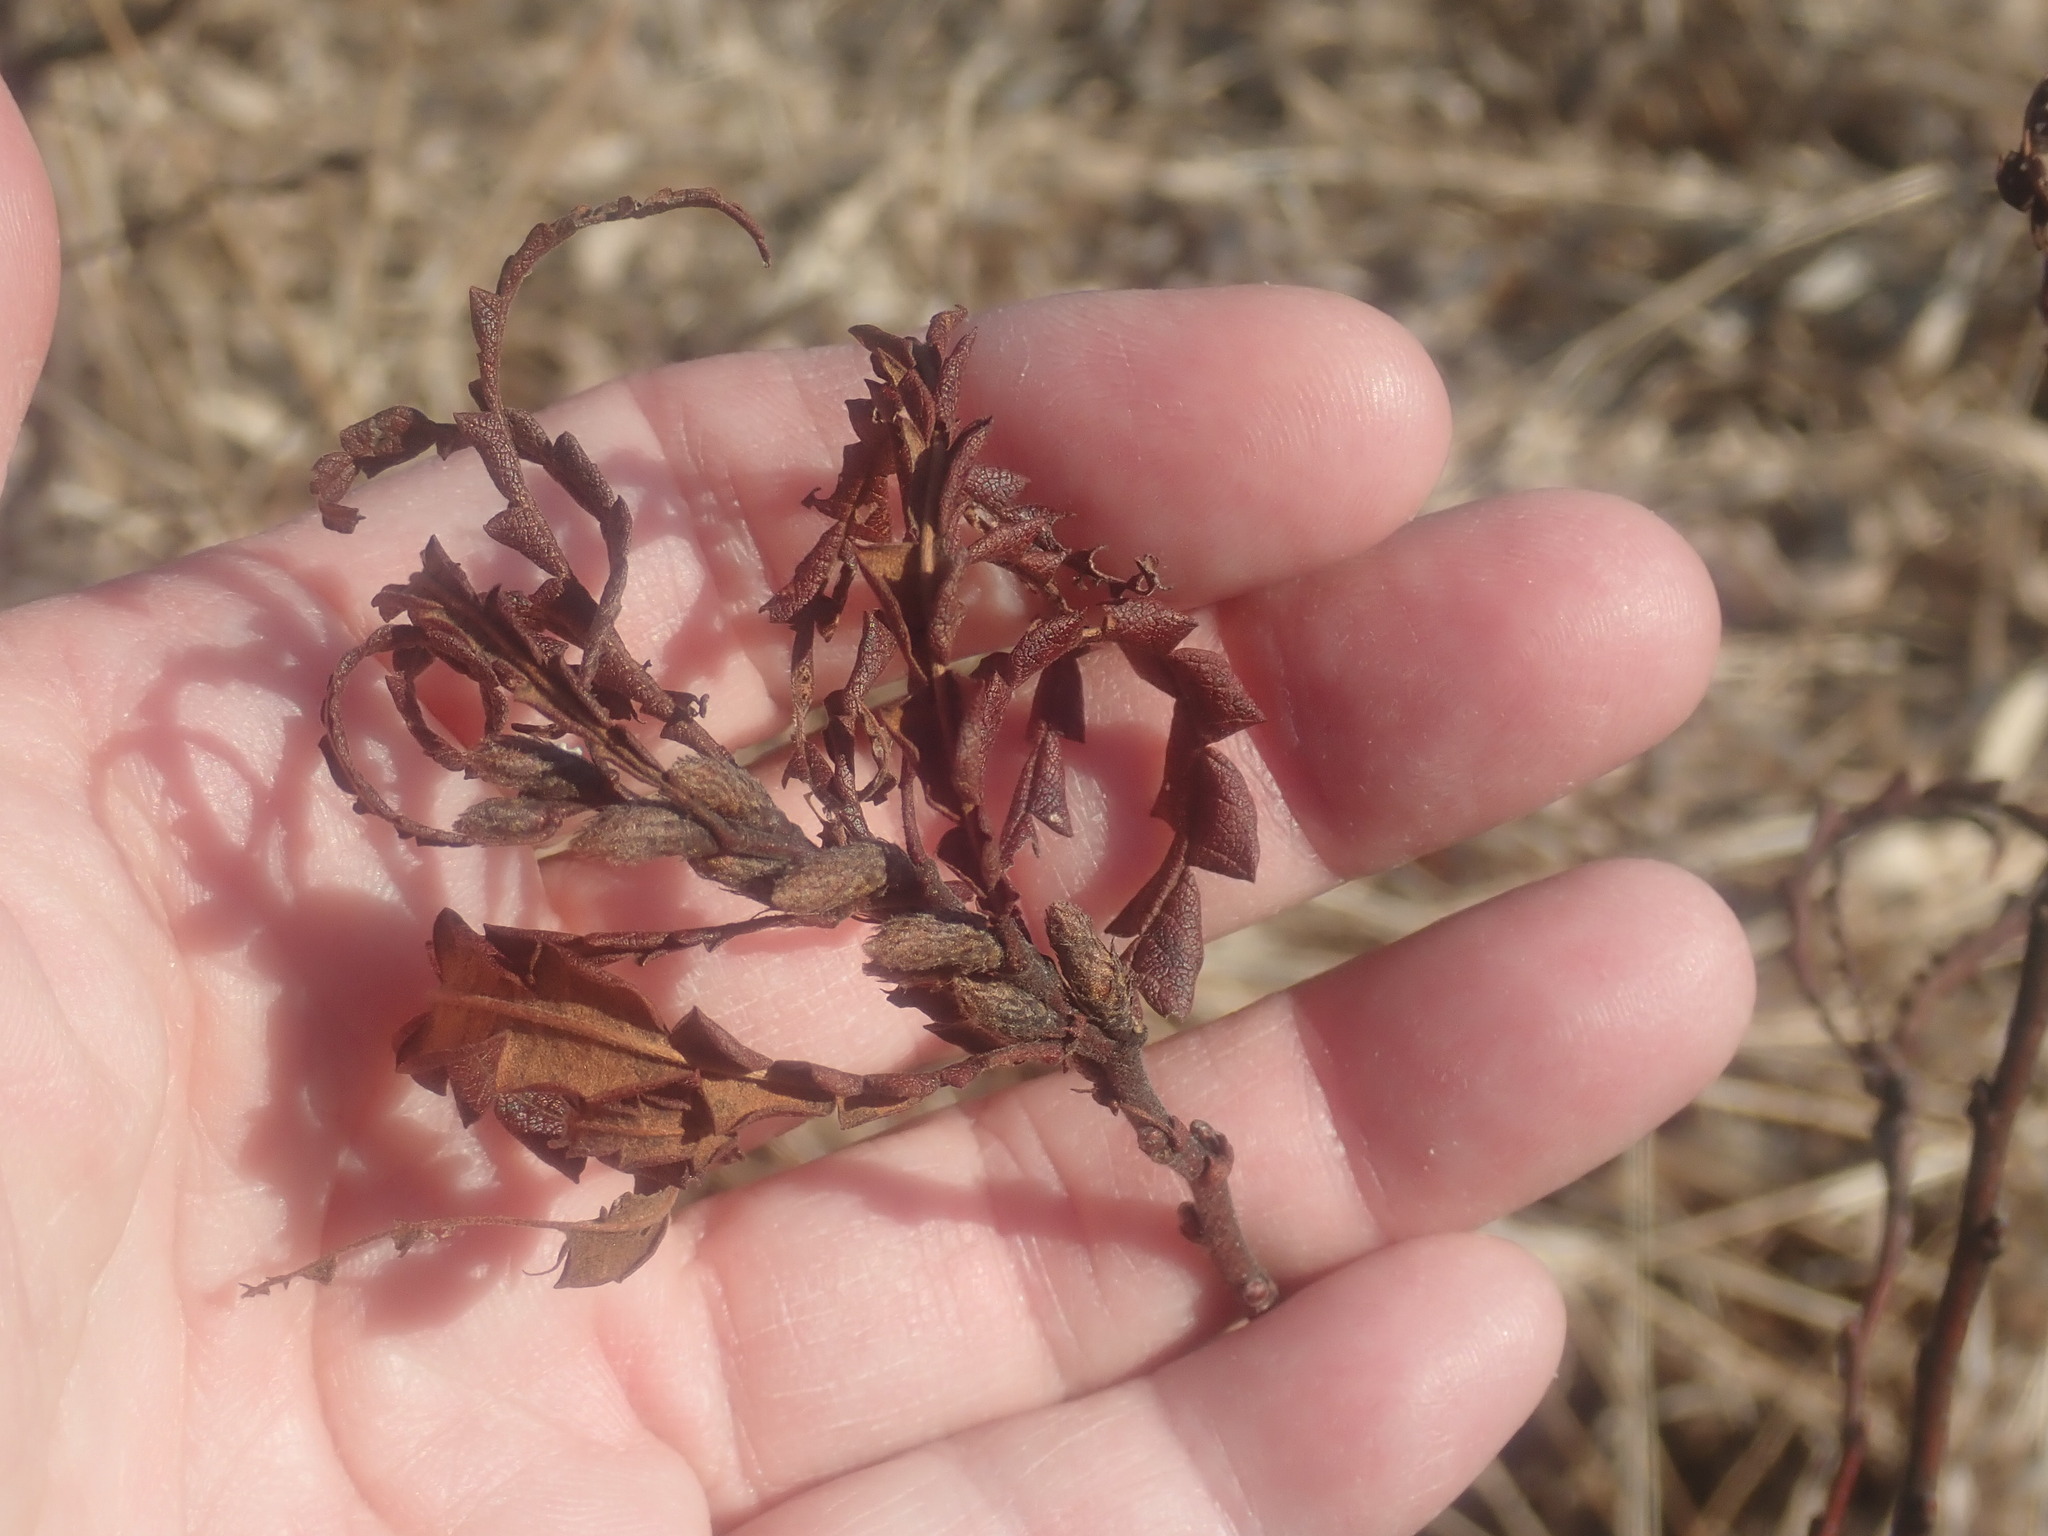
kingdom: Plantae
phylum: Tracheophyta
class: Magnoliopsida
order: Fagales
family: Myricaceae
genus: Comptonia
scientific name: Comptonia peregrina
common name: Sweet-fern
